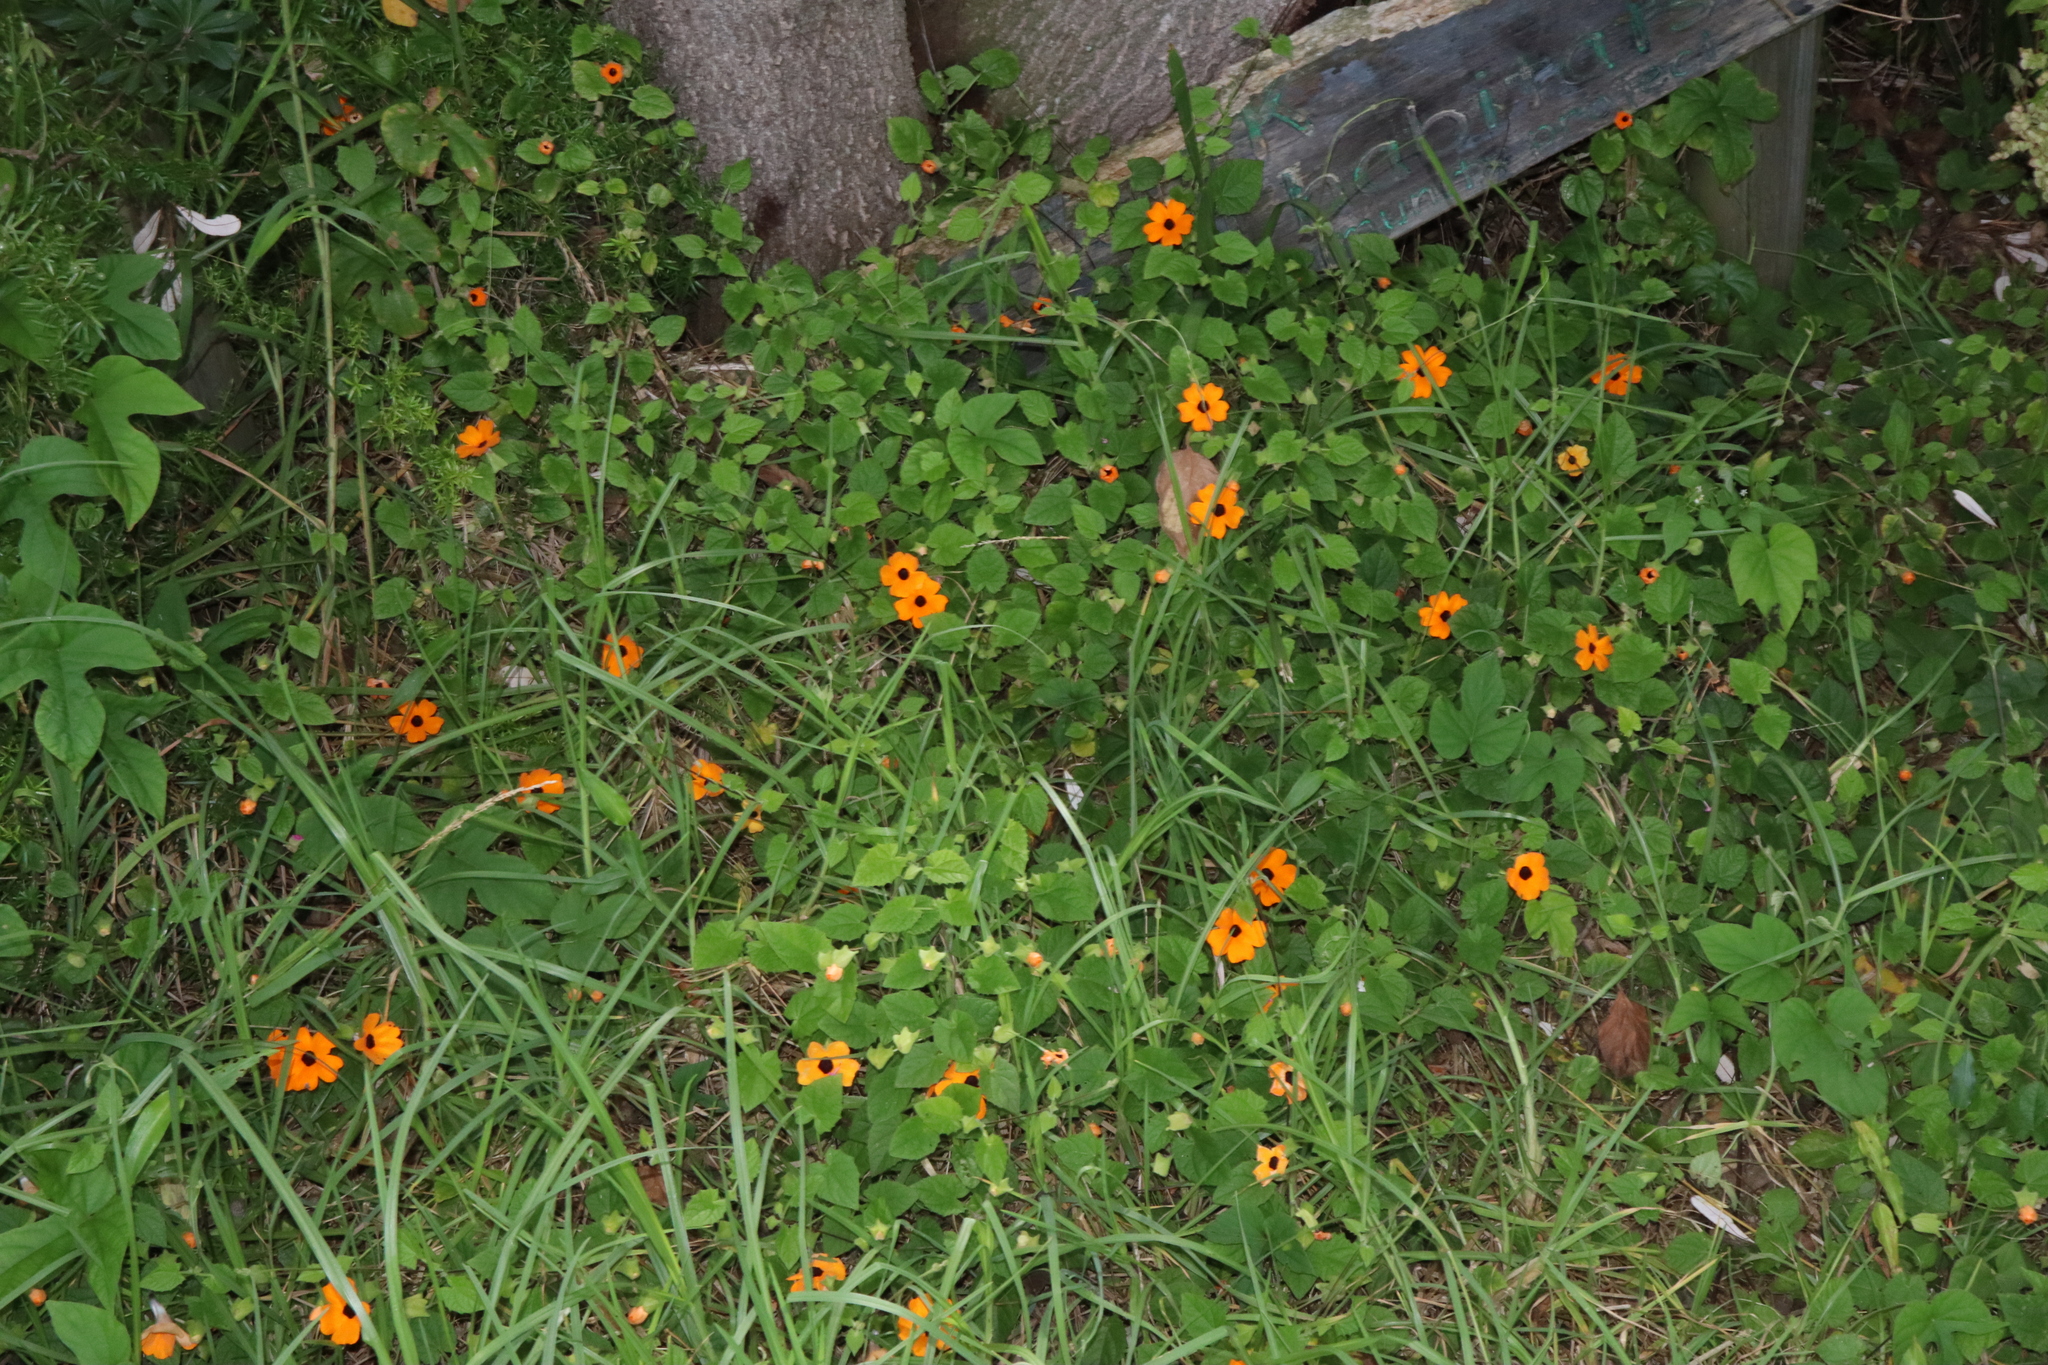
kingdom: Plantae
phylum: Tracheophyta
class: Magnoliopsida
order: Lamiales
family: Acanthaceae
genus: Thunbergia
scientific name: Thunbergia alata
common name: Blackeyed susan vine
